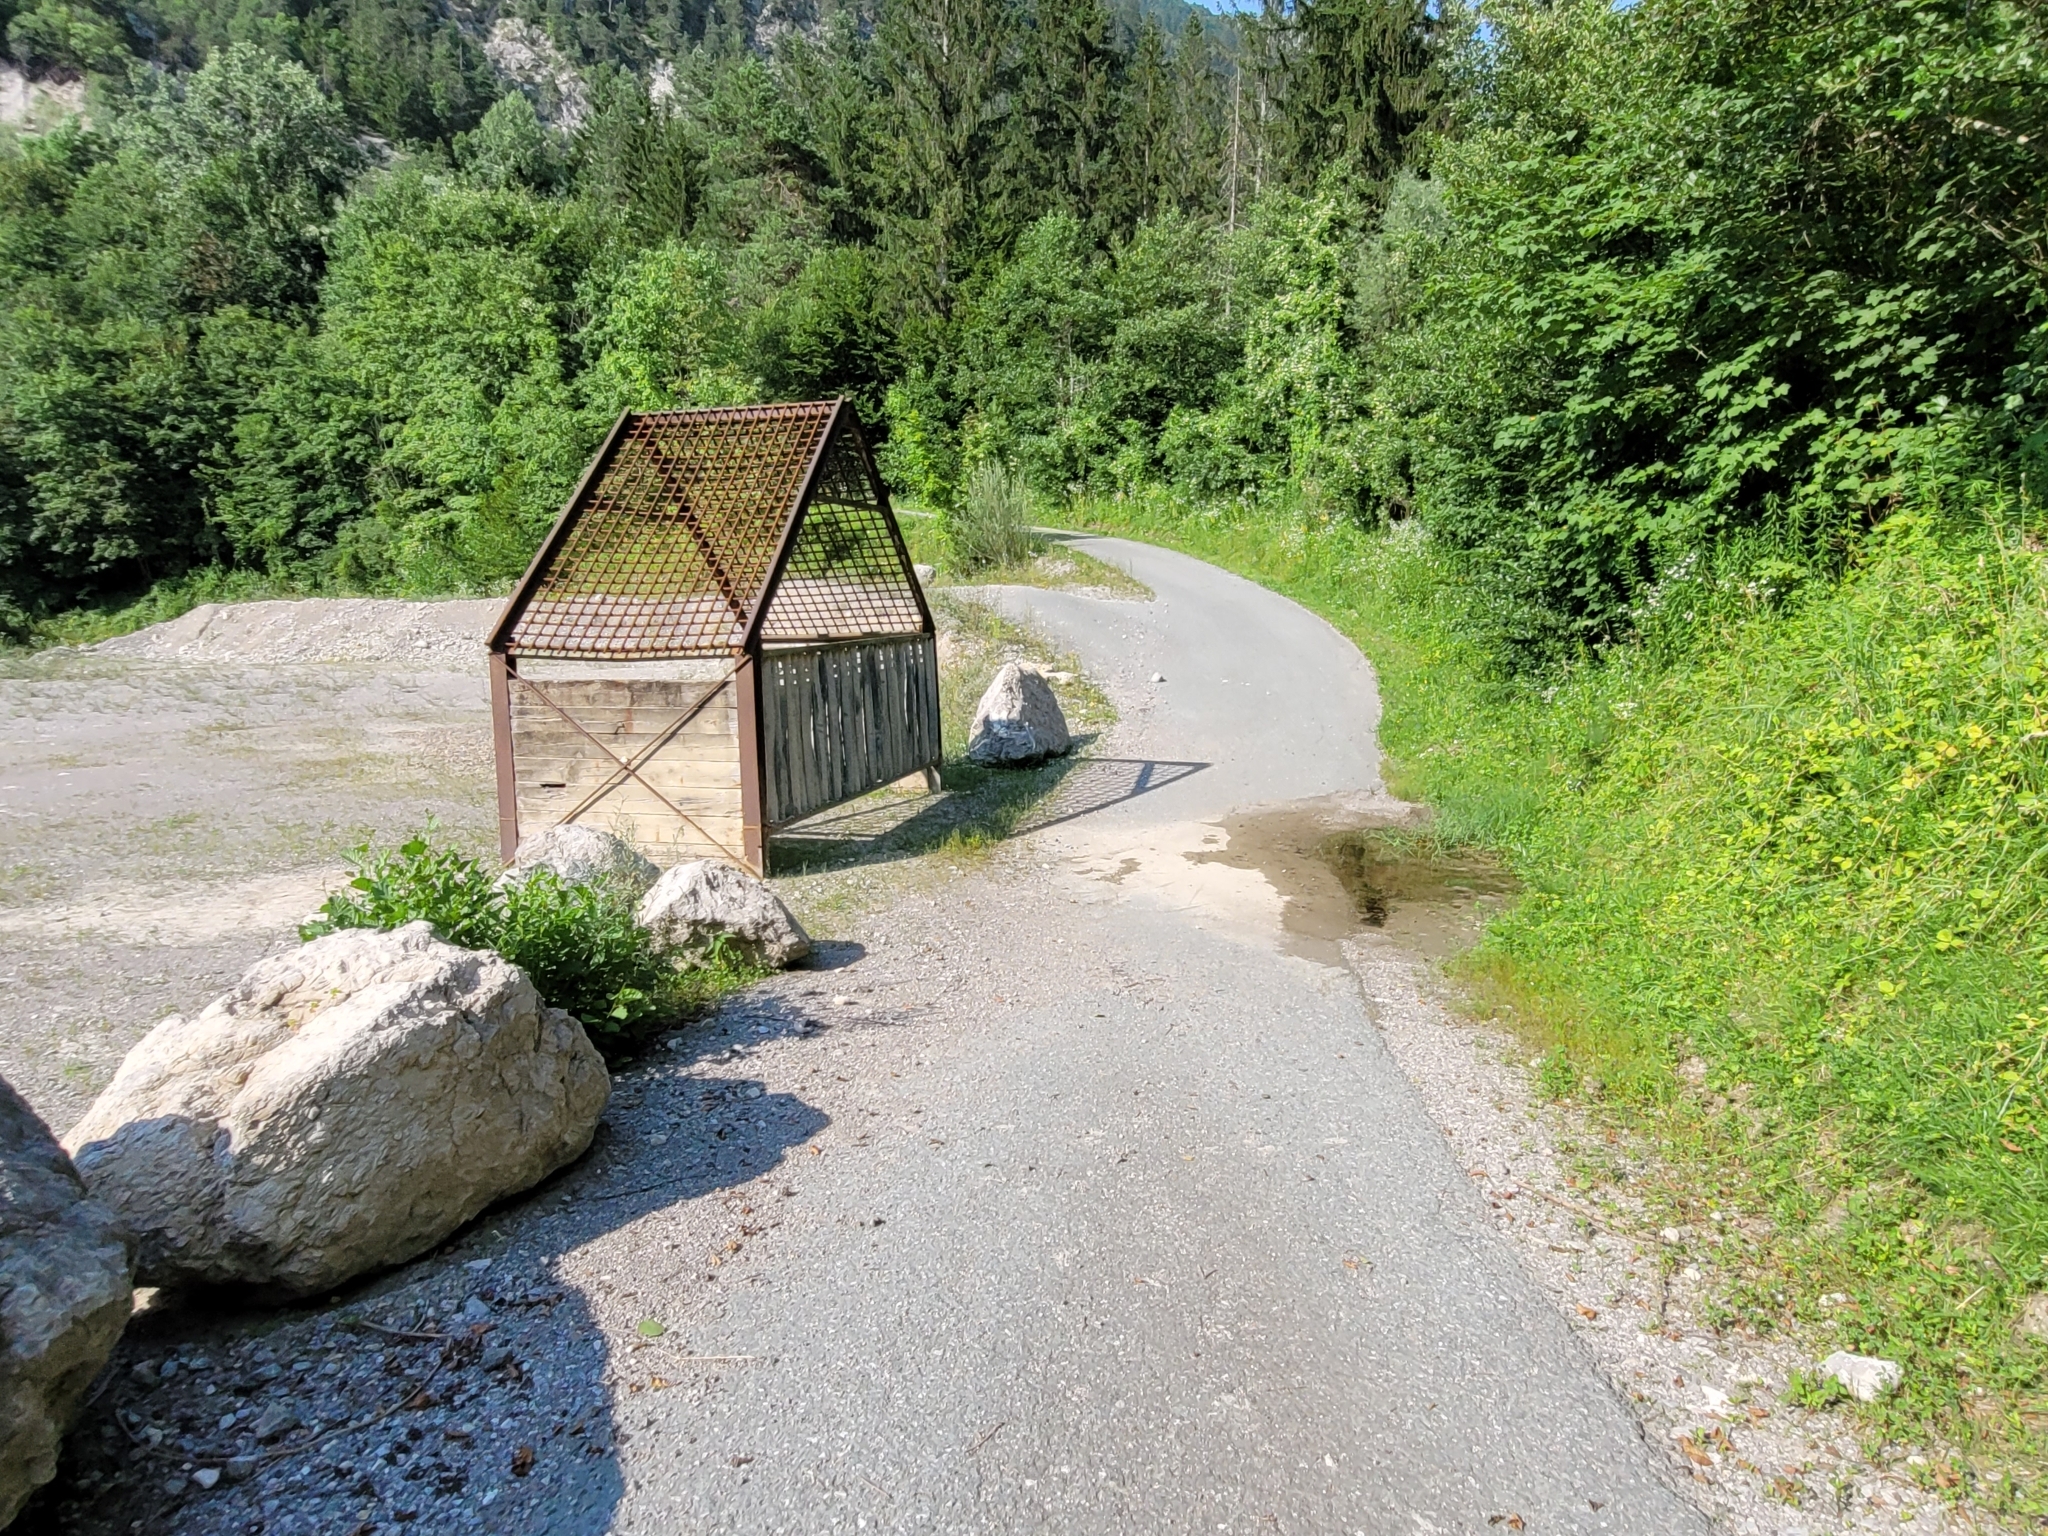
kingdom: Animalia
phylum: Chordata
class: Amphibia
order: Anura
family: Bombinatoridae
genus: Bombina
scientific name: Bombina variegata
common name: Yellow-bellied toad
